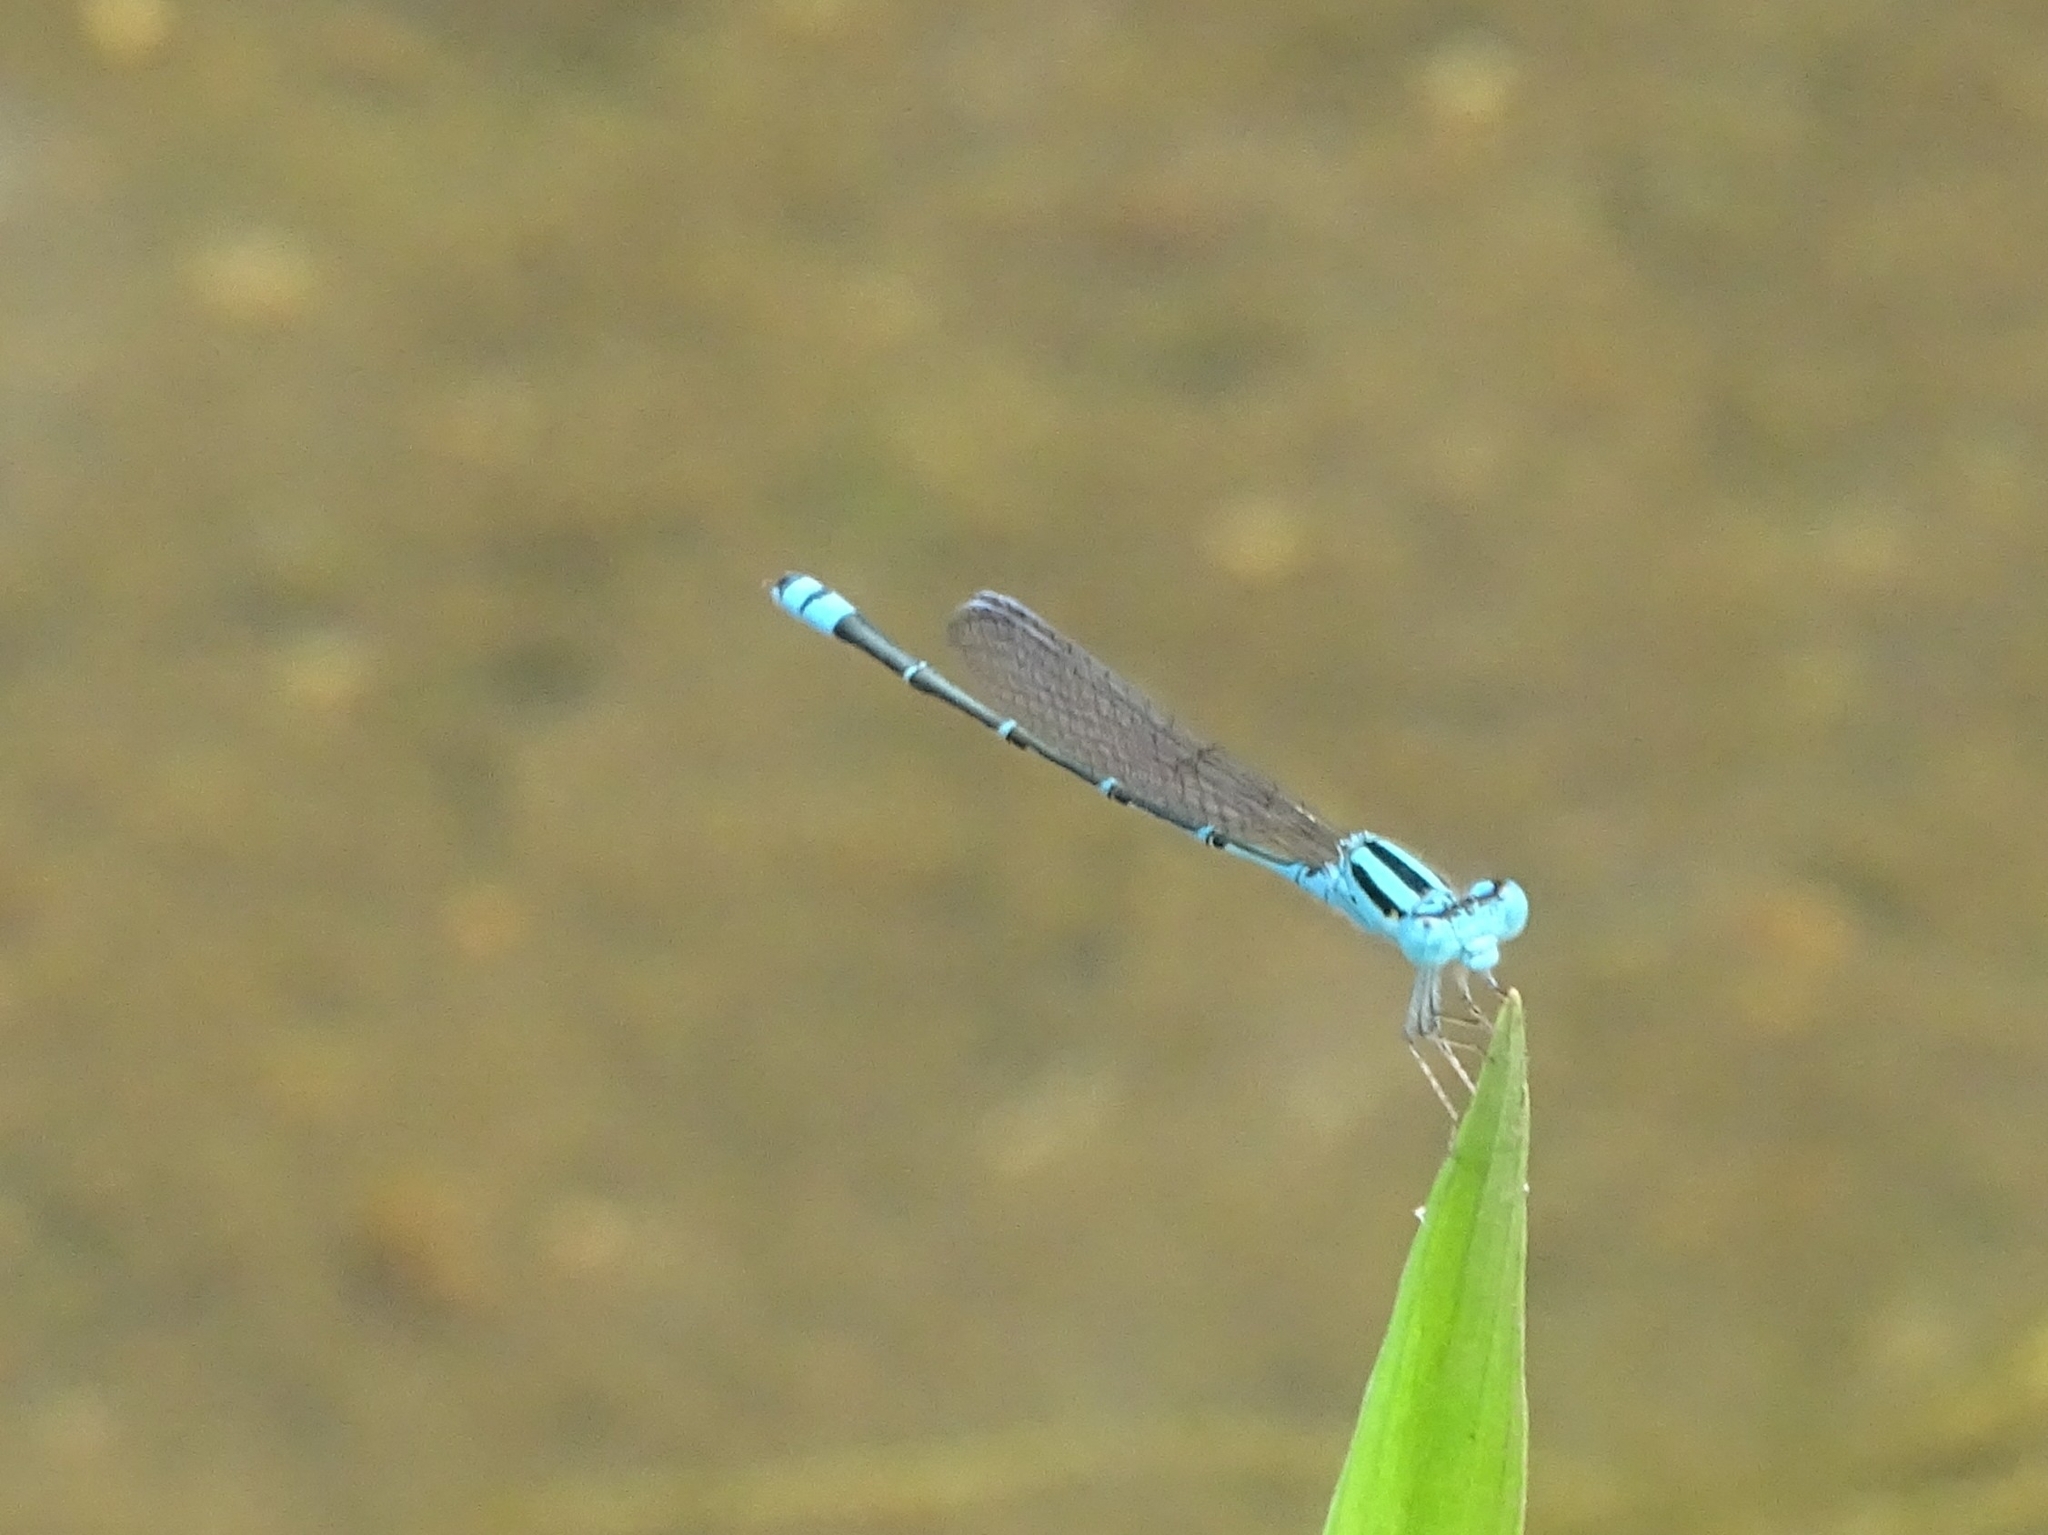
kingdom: Animalia
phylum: Arthropoda
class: Insecta
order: Odonata
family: Coenagrionidae
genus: Pseudagrion
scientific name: Pseudagrion microcephalum
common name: Blue riverdamsel
